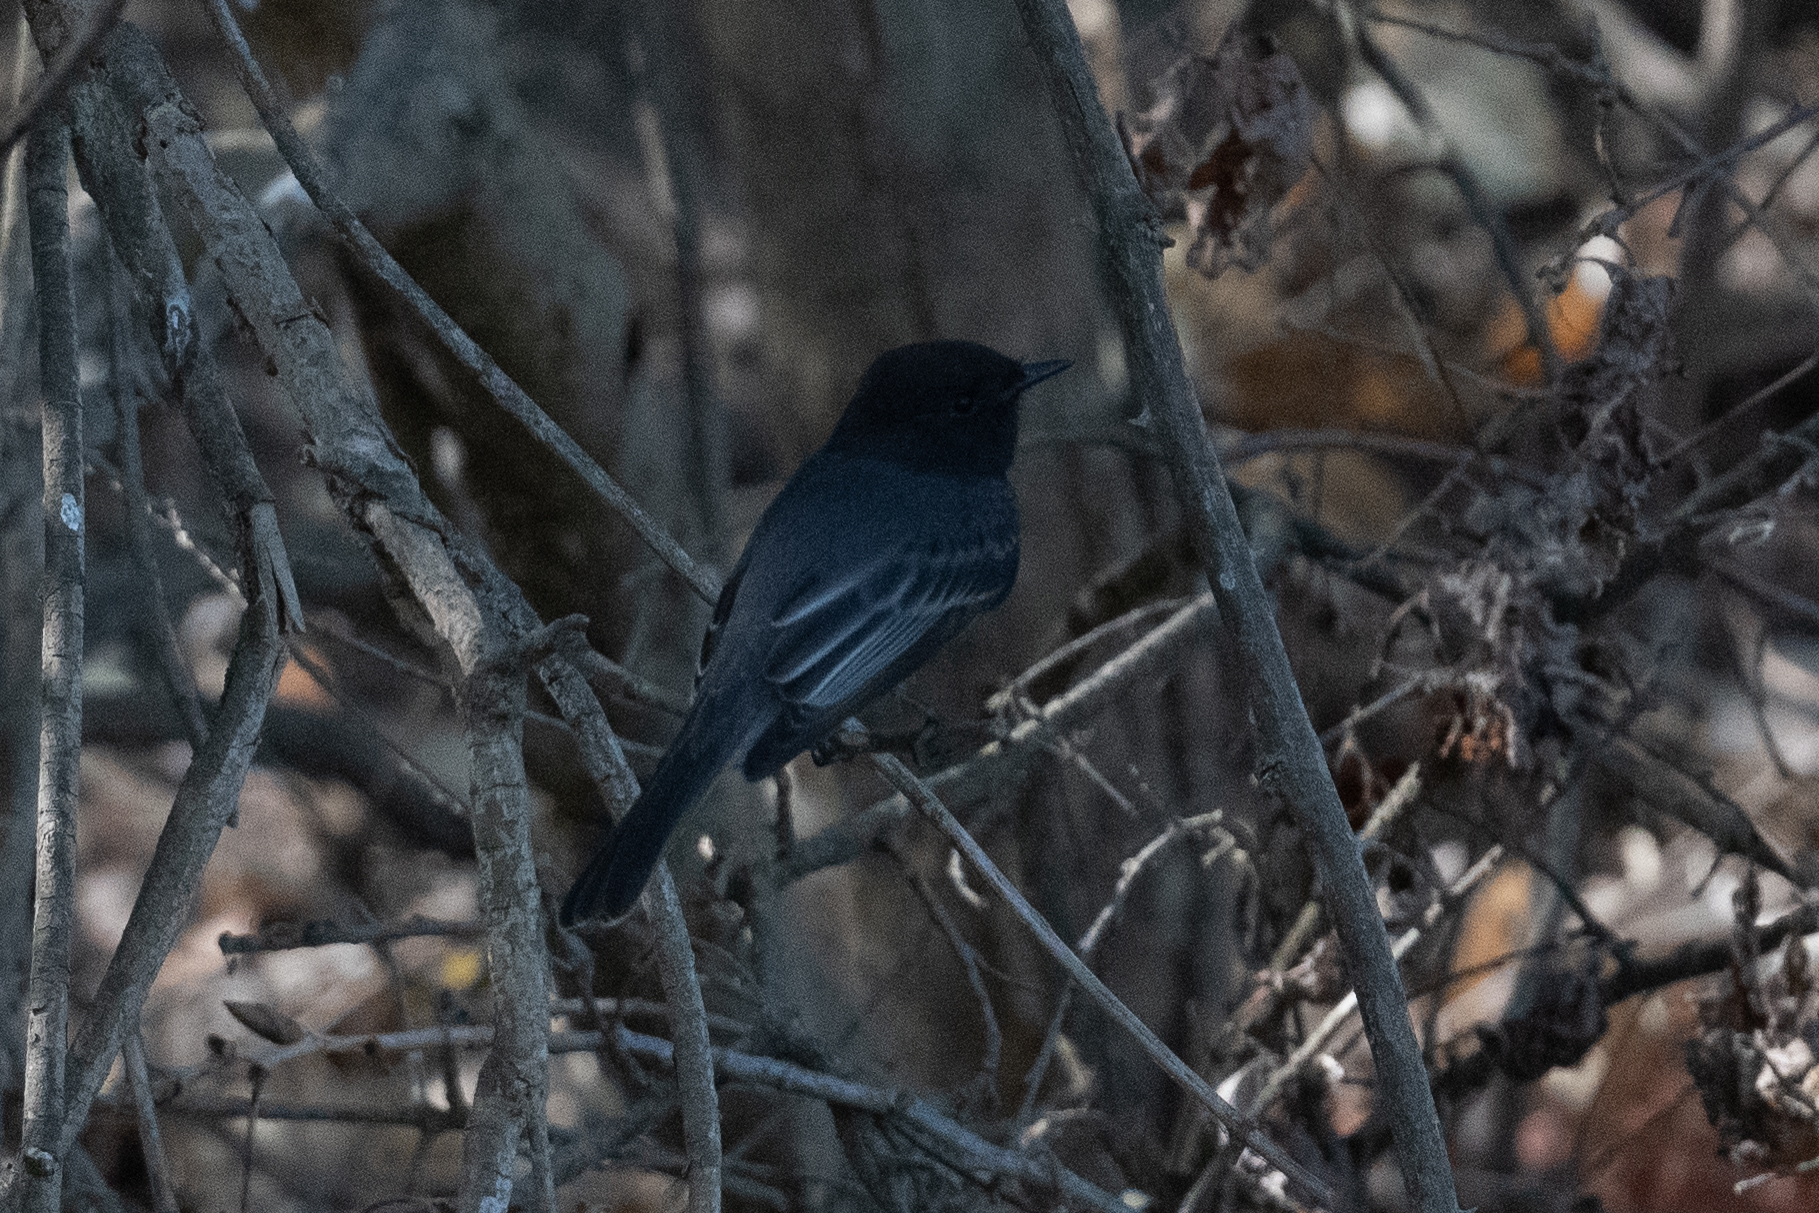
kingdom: Animalia
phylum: Chordata
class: Aves
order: Passeriformes
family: Tyrannidae
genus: Sayornis
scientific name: Sayornis nigricans
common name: Black phoebe
